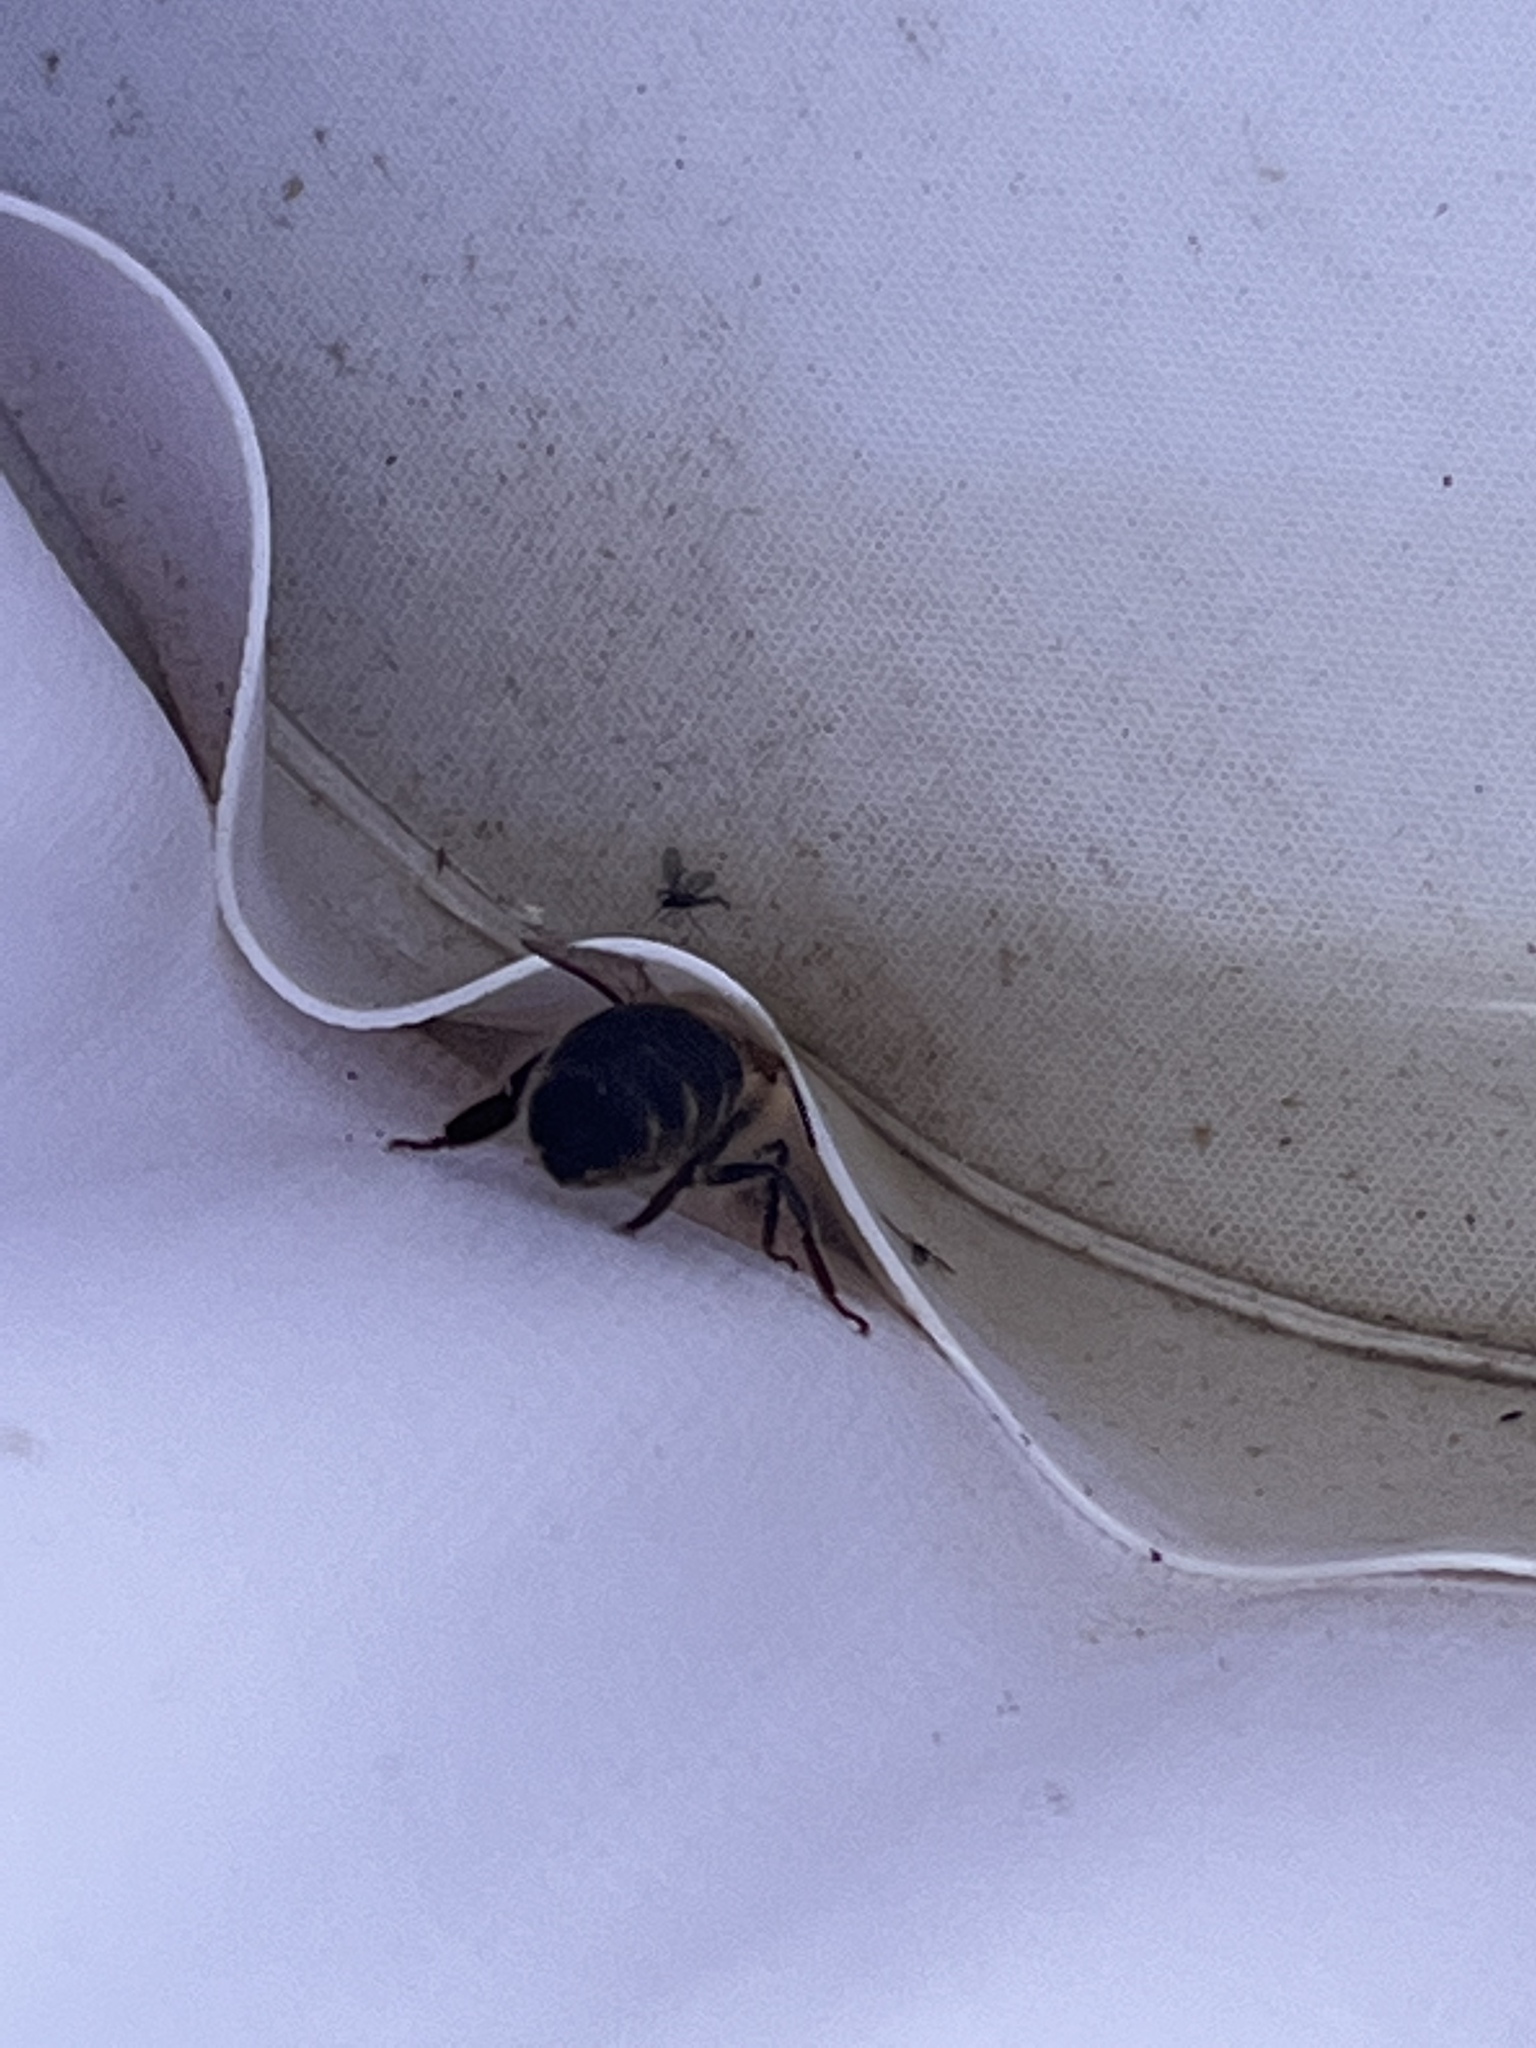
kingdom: Animalia
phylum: Arthropoda
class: Insecta
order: Hymenoptera
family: Apidae
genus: Apis
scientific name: Apis mellifera
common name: Honey bee
